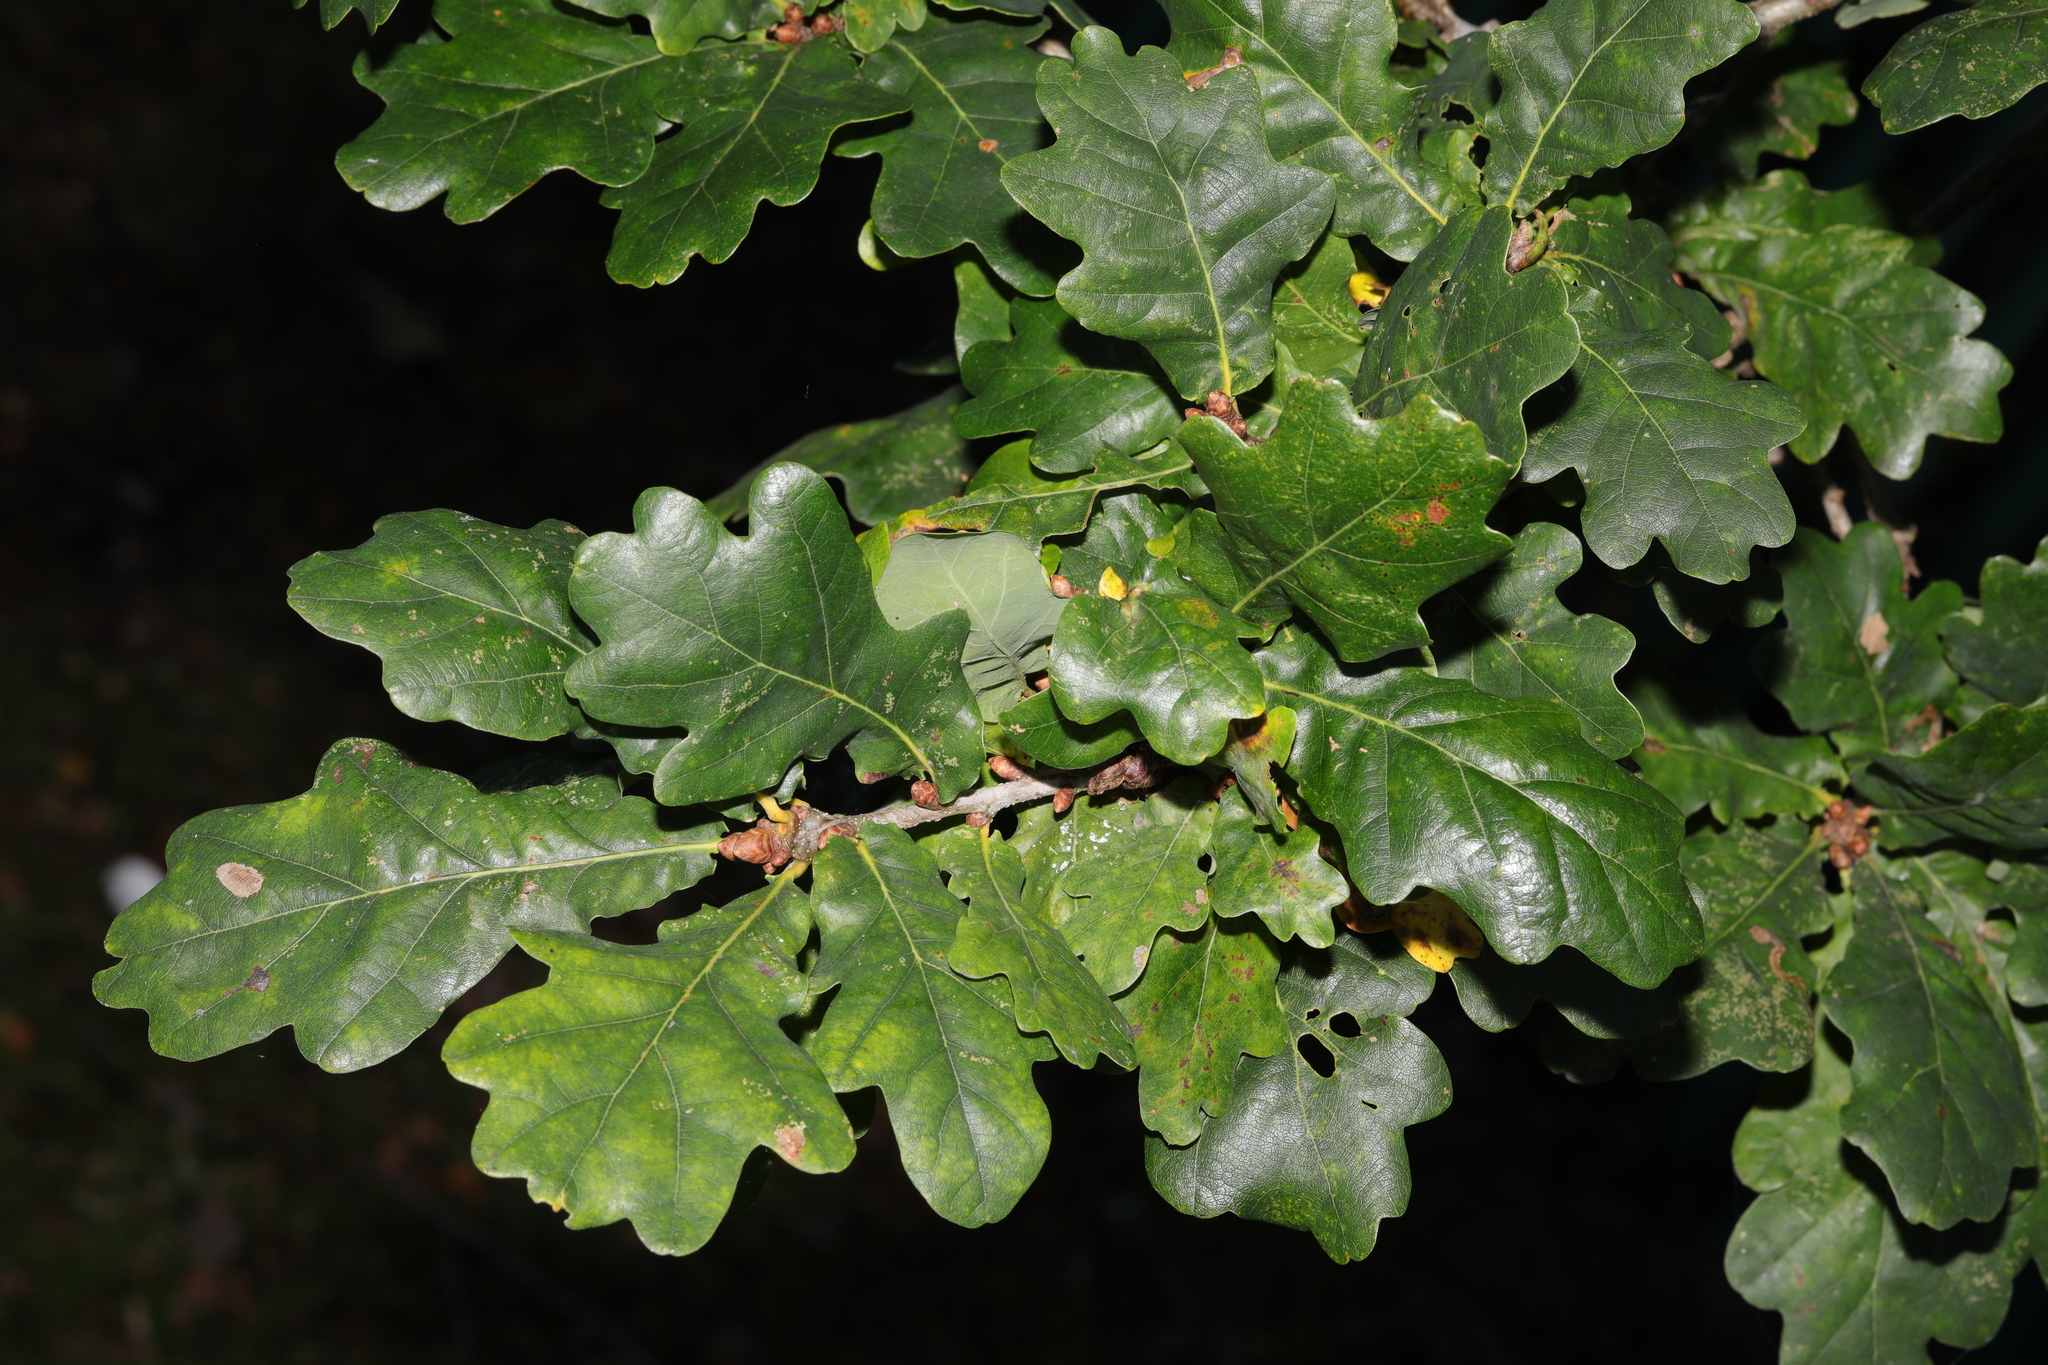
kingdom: Plantae
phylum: Tracheophyta
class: Magnoliopsida
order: Fagales
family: Fagaceae
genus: Quercus
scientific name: Quercus robur
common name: Pedunculate oak
